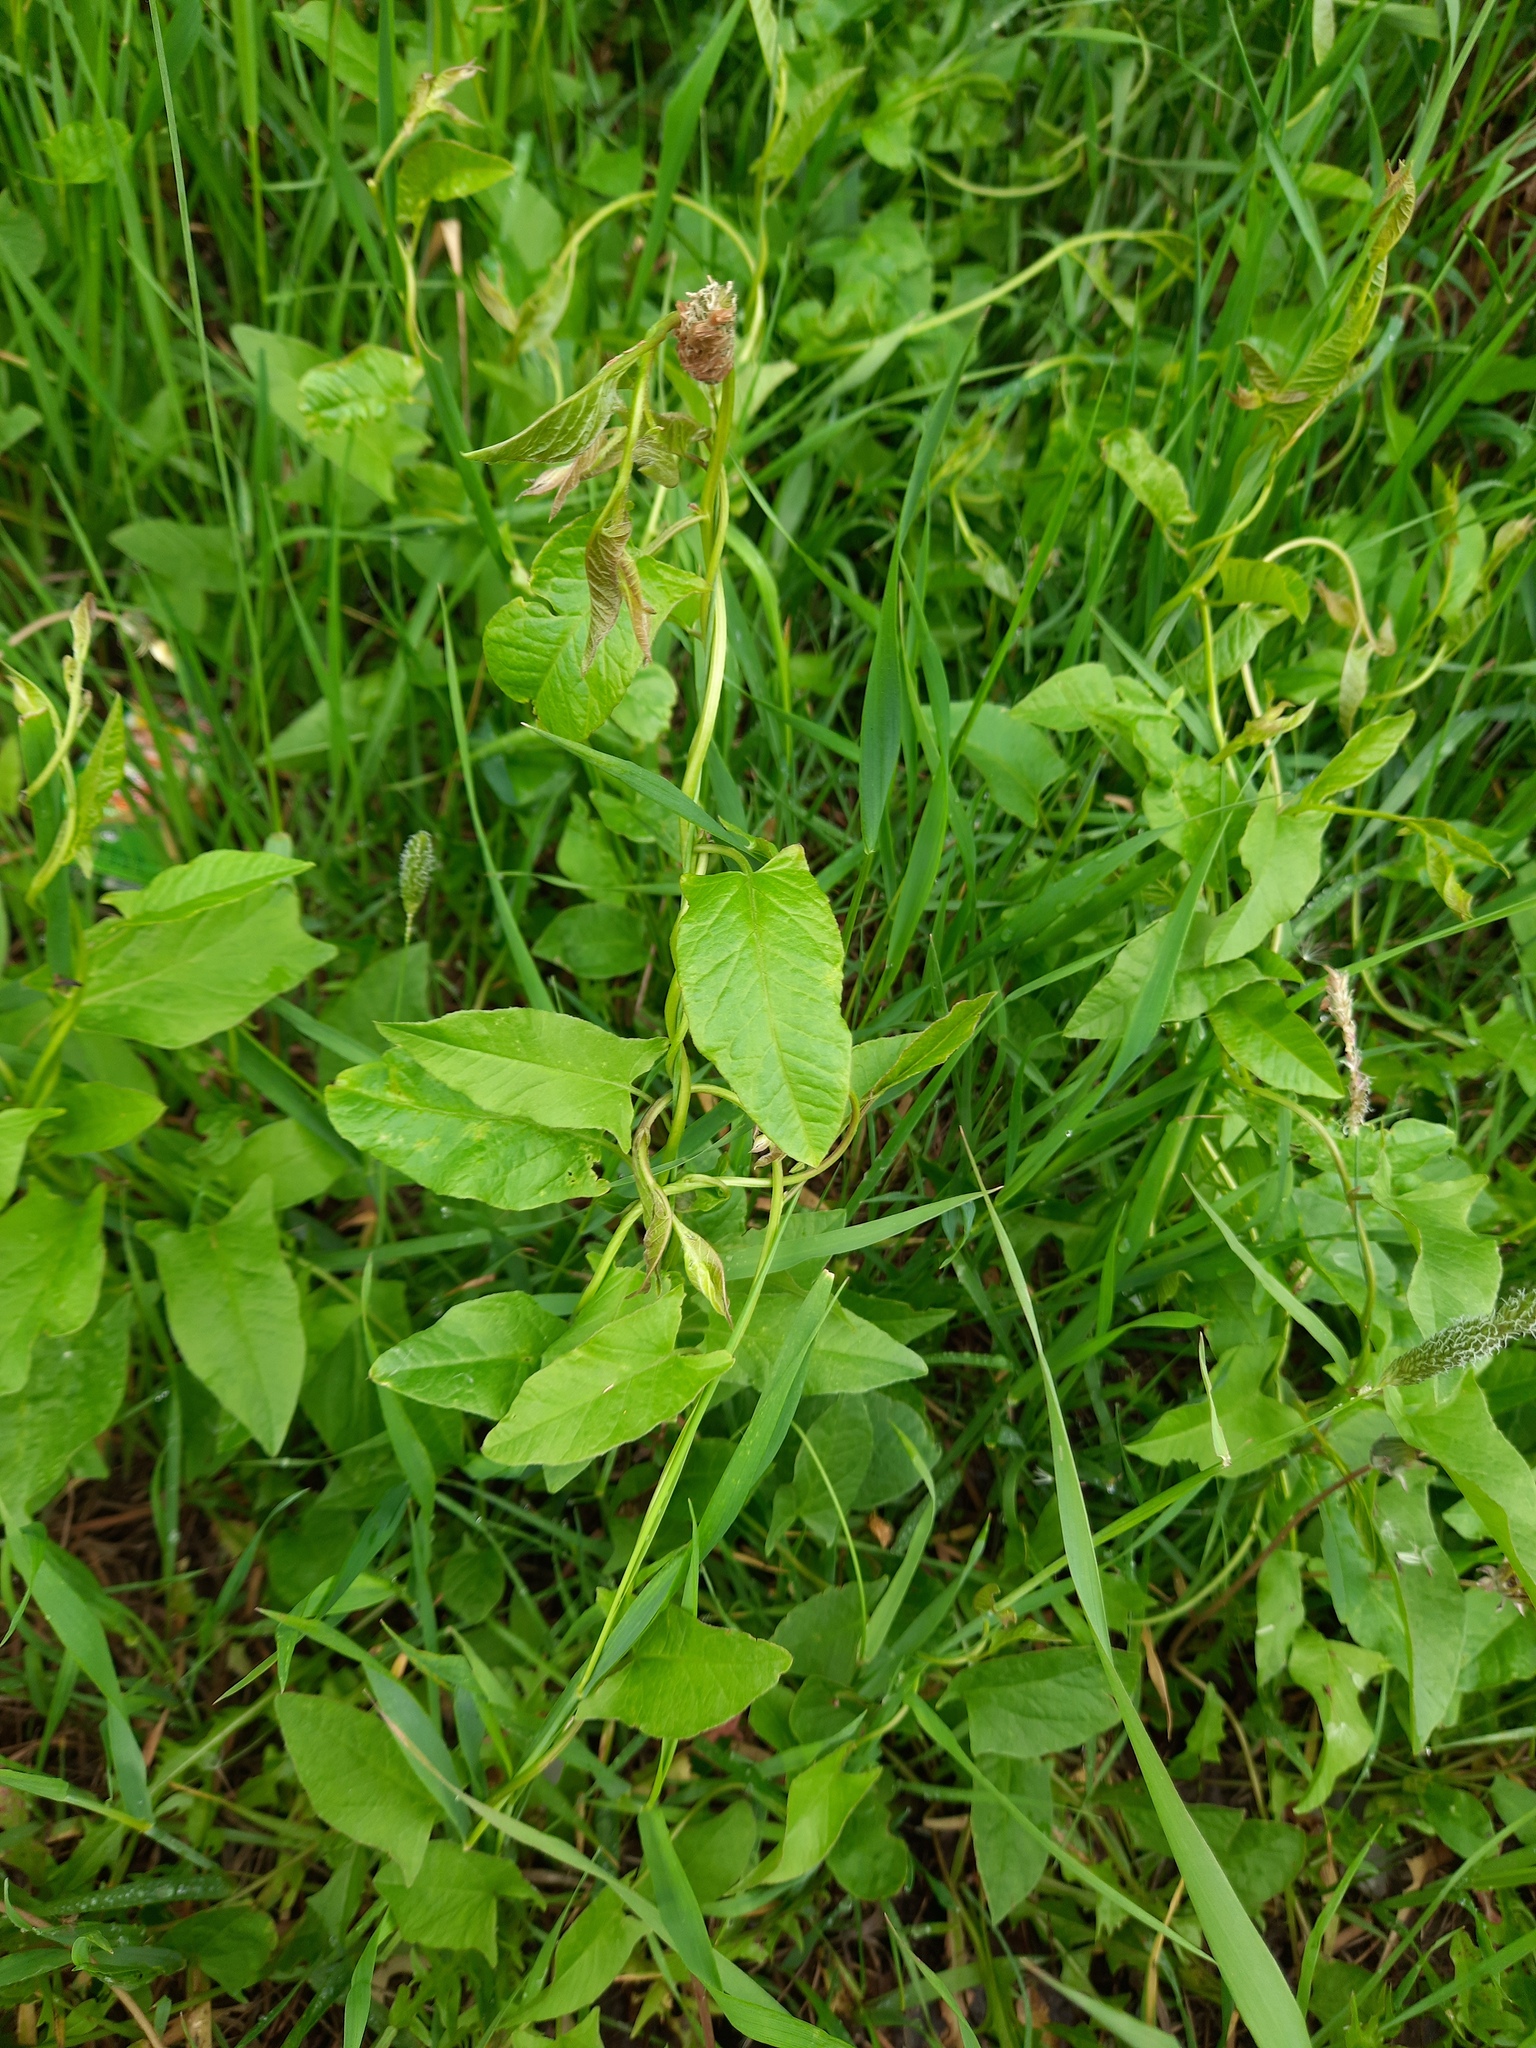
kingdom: Plantae
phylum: Tracheophyta
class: Magnoliopsida
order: Solanales
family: Convolvulaceae
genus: Convolvulus
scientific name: Convolvulus arvensis
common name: Field bindweed
